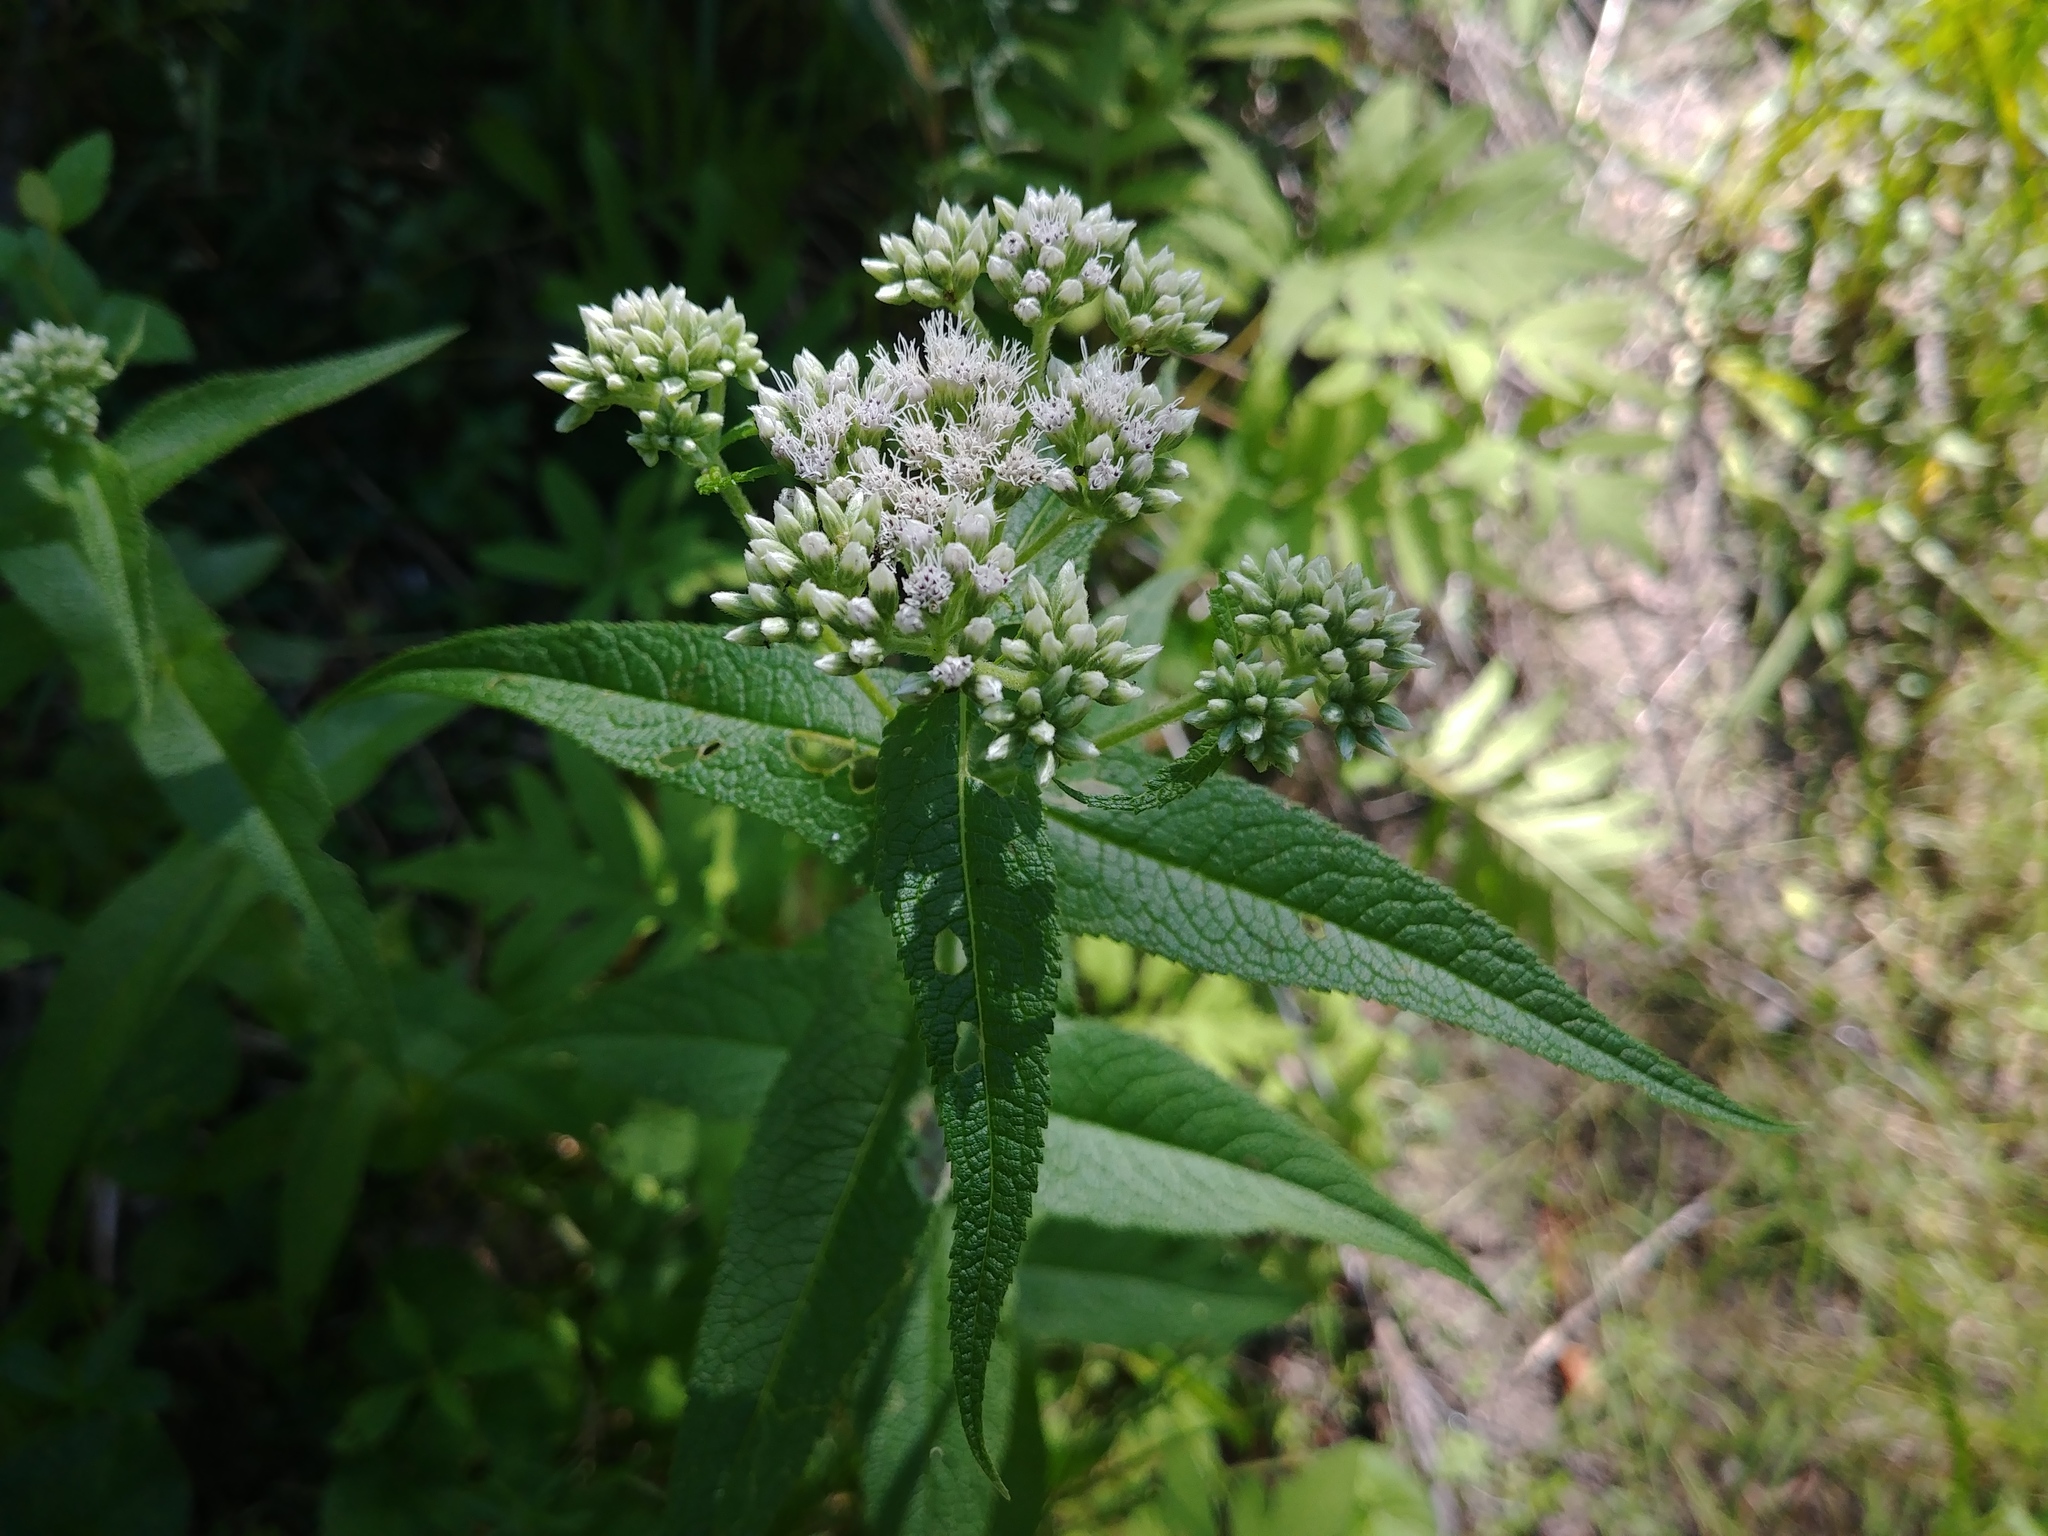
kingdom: Plantae
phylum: Tracheophyta
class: Magnoliopsida
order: Asterales
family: Asteraceae
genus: Eupatorium
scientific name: Eupatorium perfoliatum
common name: Boneset
